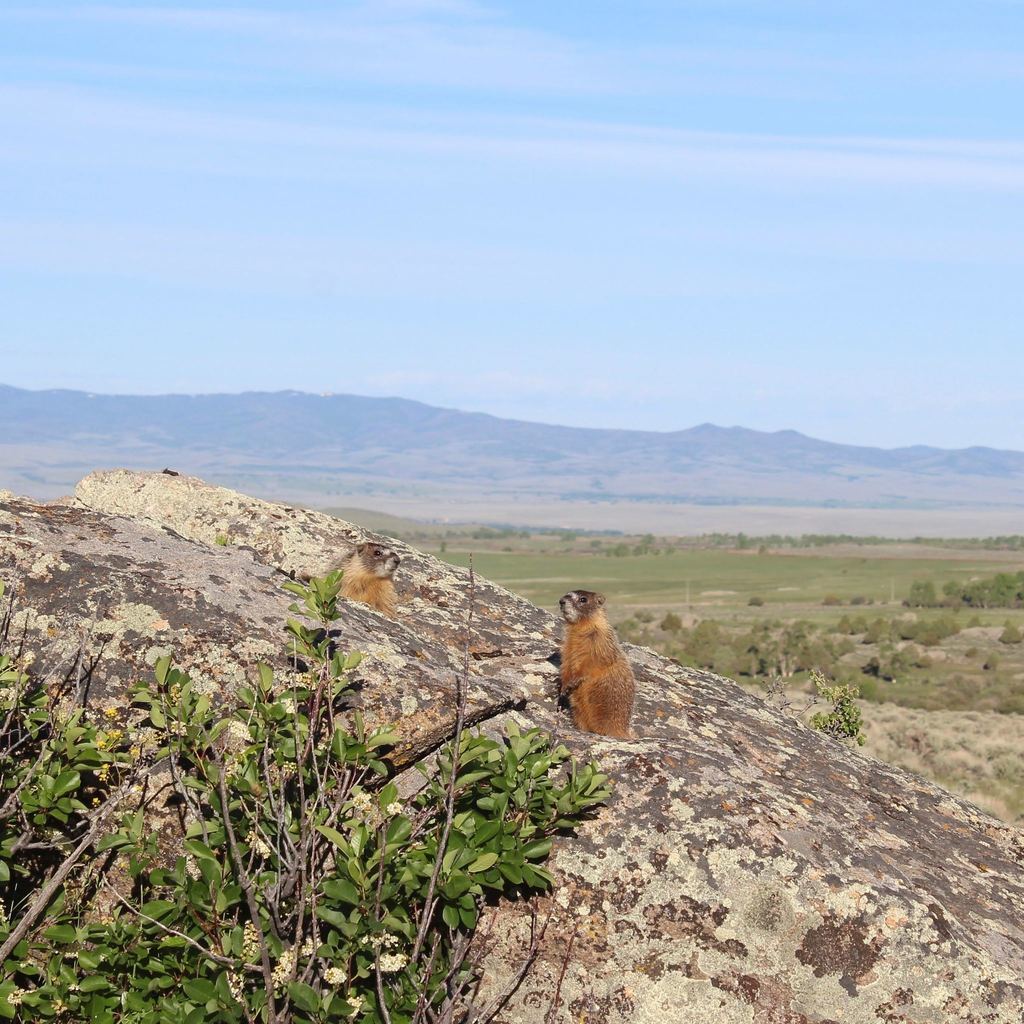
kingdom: Animalia
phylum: Chordata
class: Mammalia
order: Rodentia
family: Sciuridae
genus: Marmota
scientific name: Marmota flaviventris
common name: Yellow-bellied marmot
